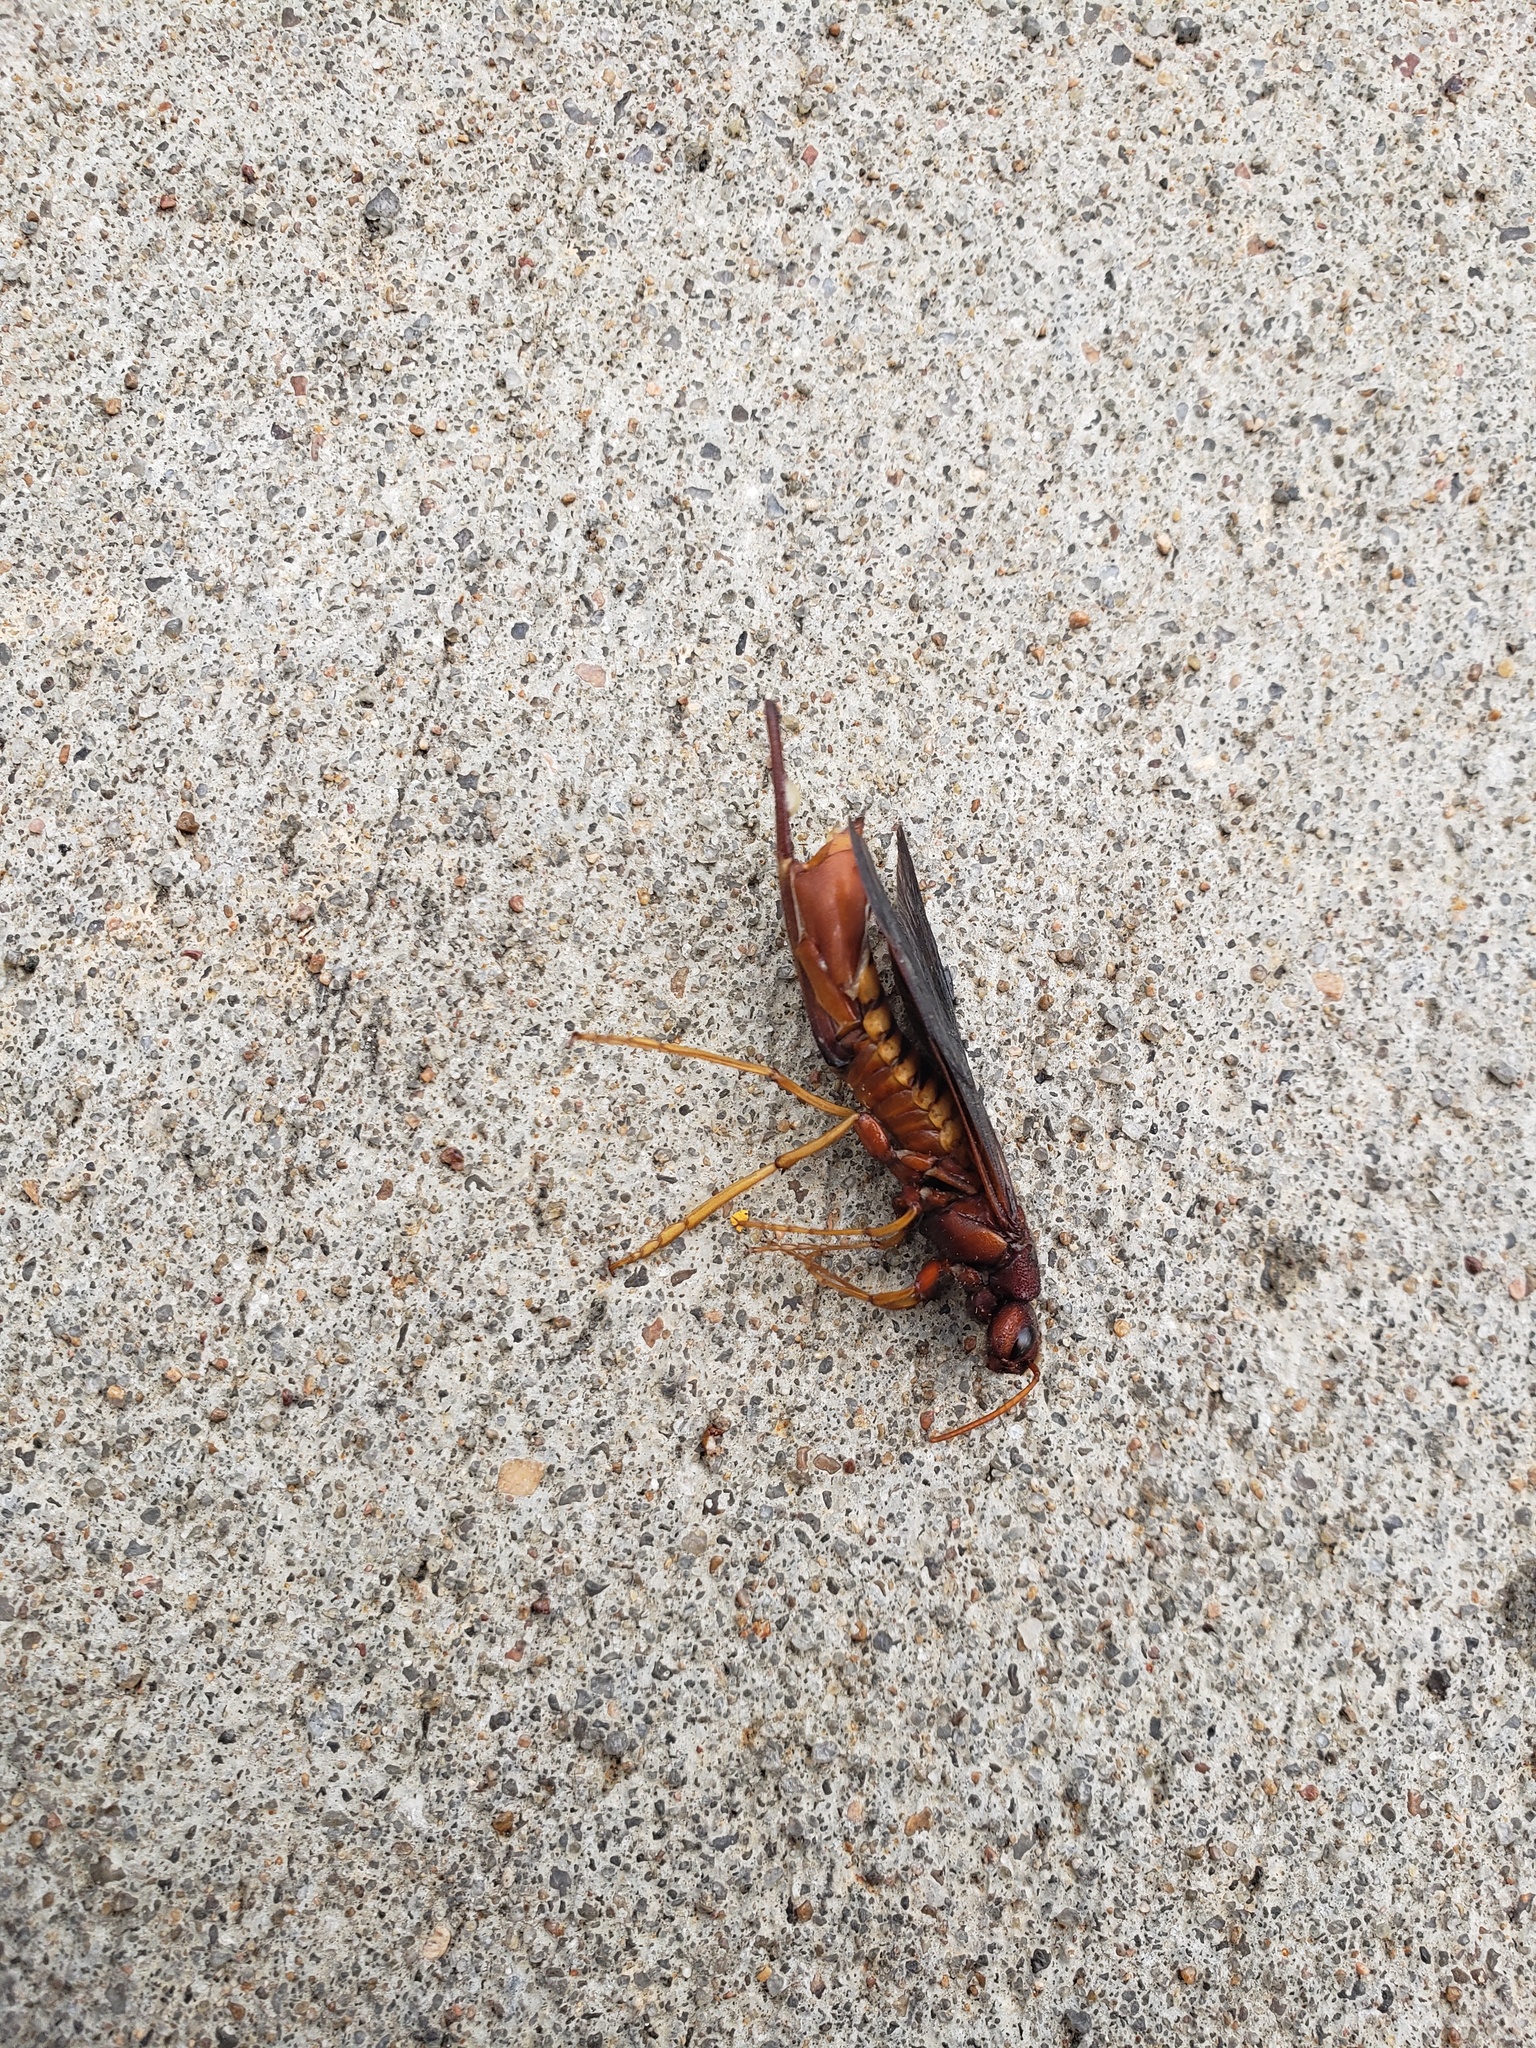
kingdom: Animalia
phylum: Arthropoda
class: Insecta
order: Hymenoptera
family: Siricidae
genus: Tremex
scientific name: Tremex columba
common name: Wasp
